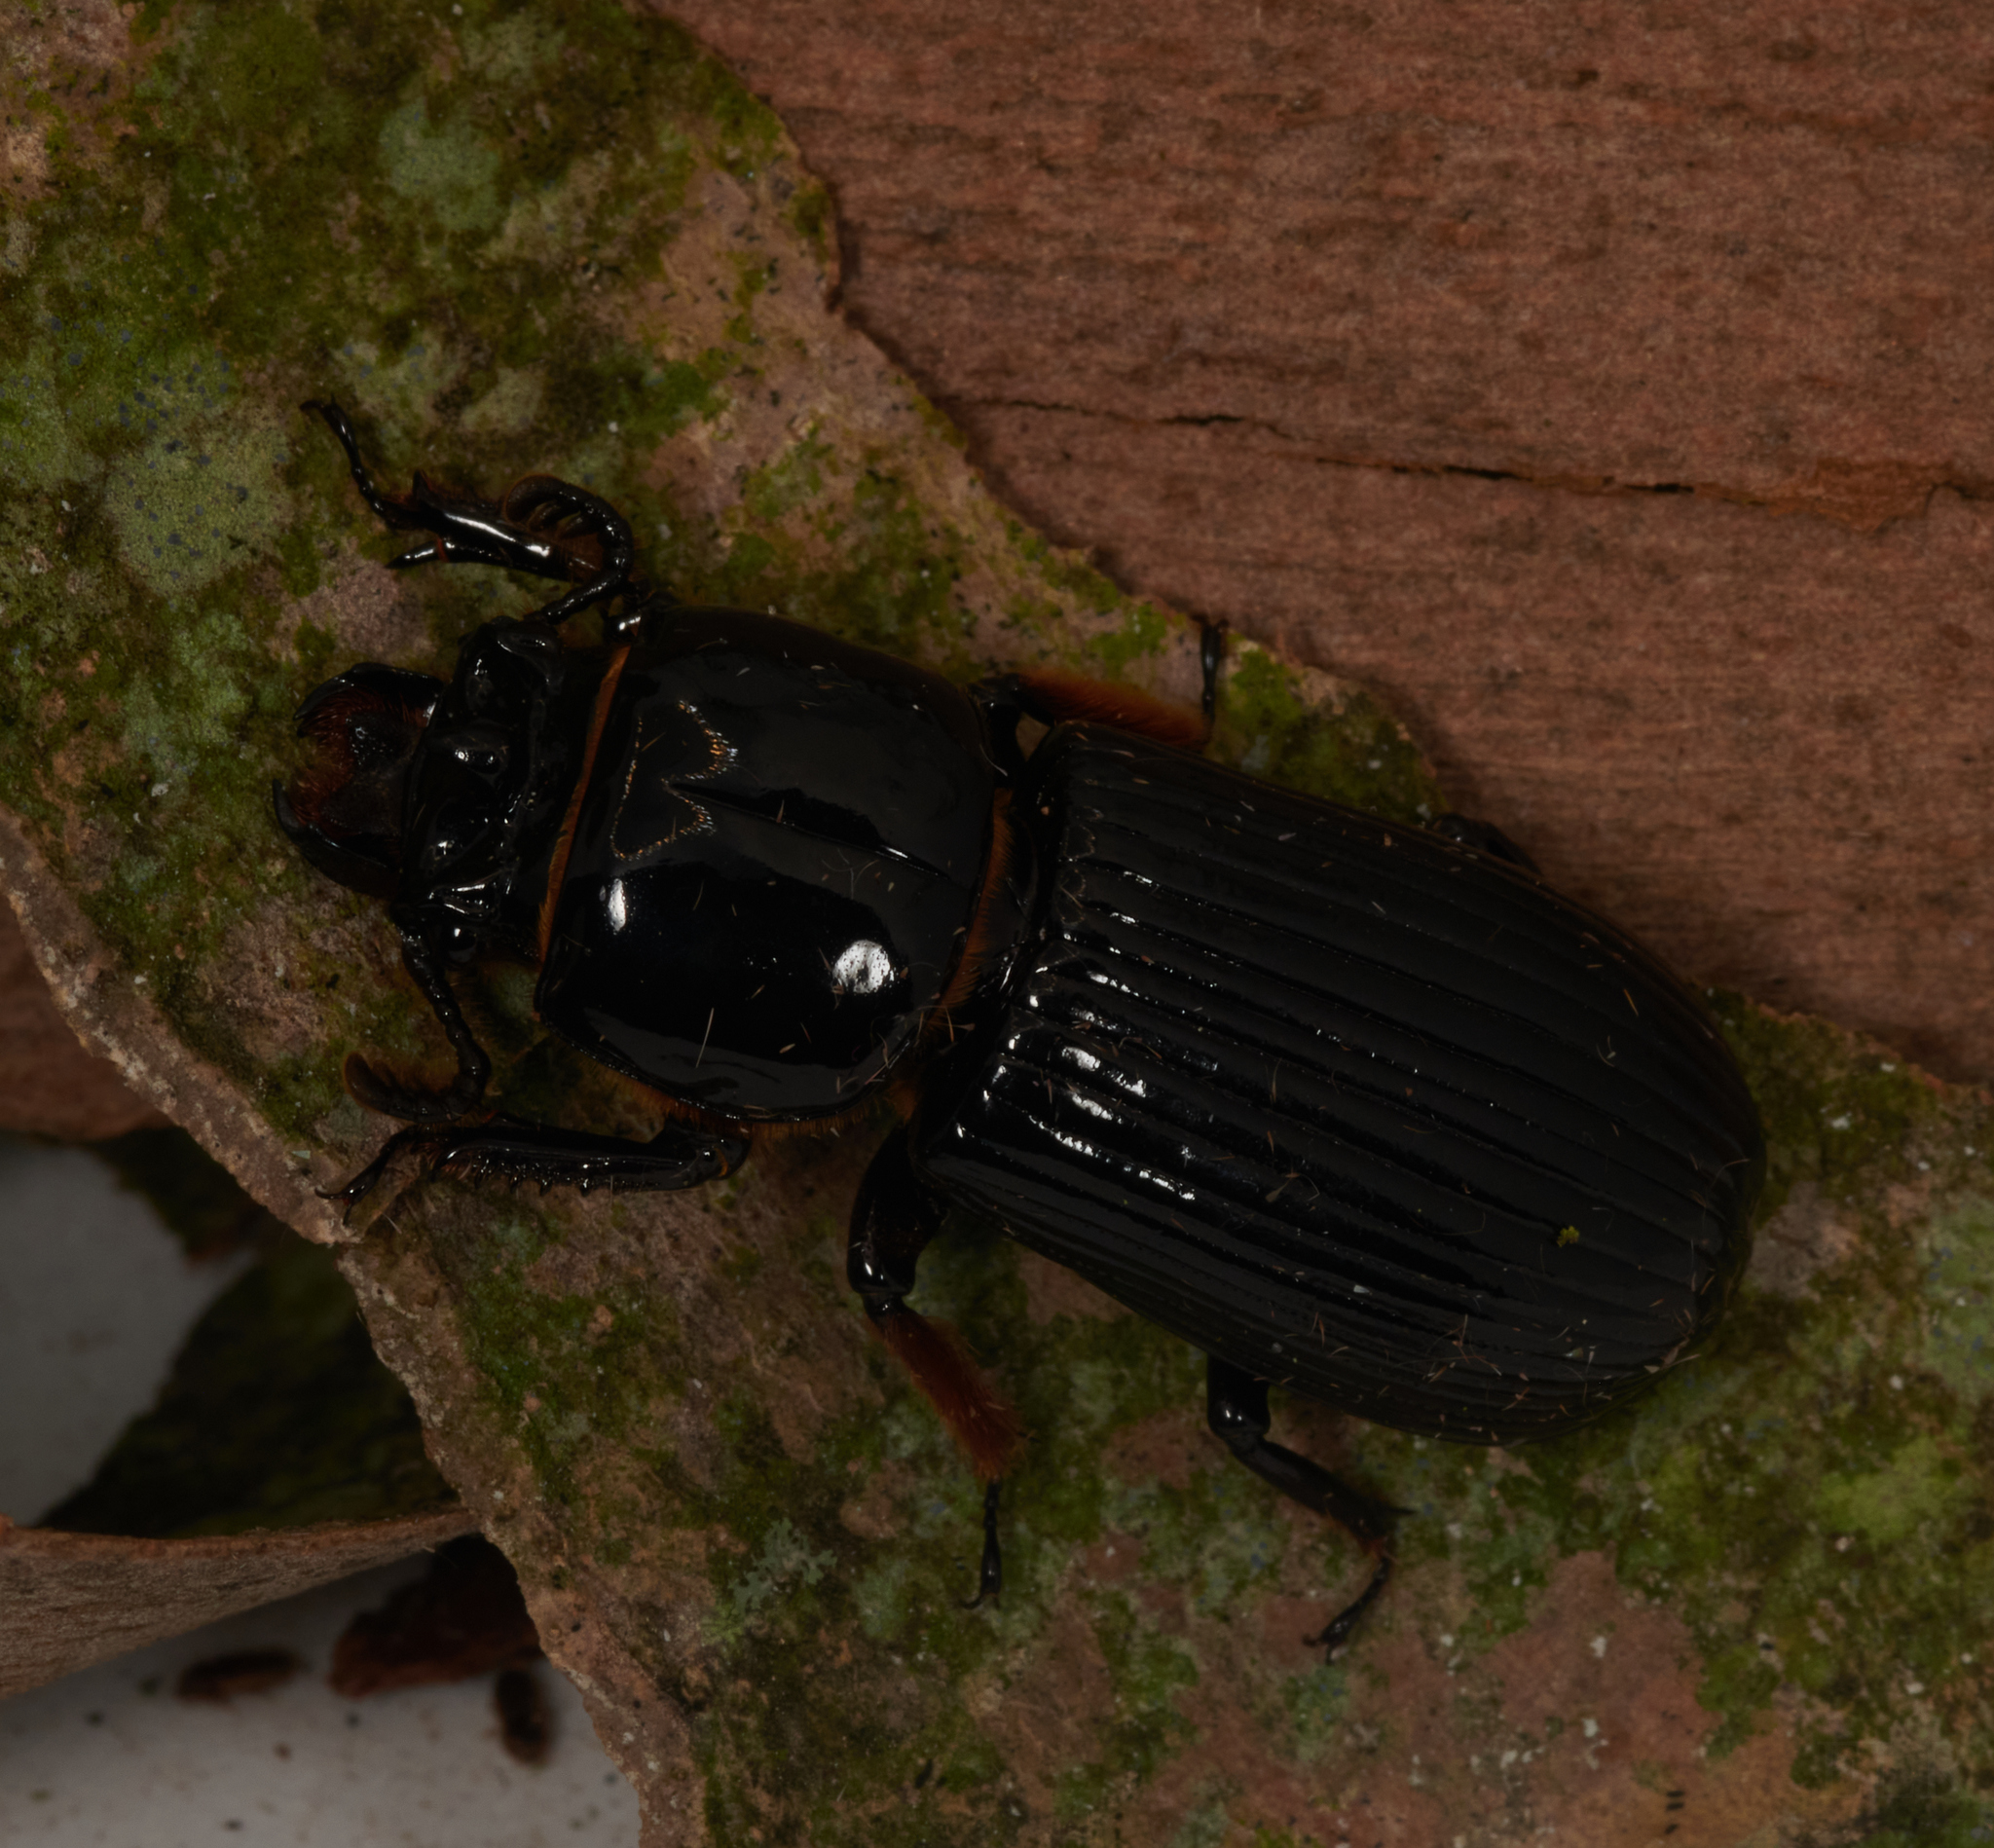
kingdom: Animalia
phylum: Arthropoda
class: Insecta
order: Coleoptera
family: Passalidae
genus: Odontotaenius
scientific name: Odontotaenius disjunctus
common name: Patent leather beetle
